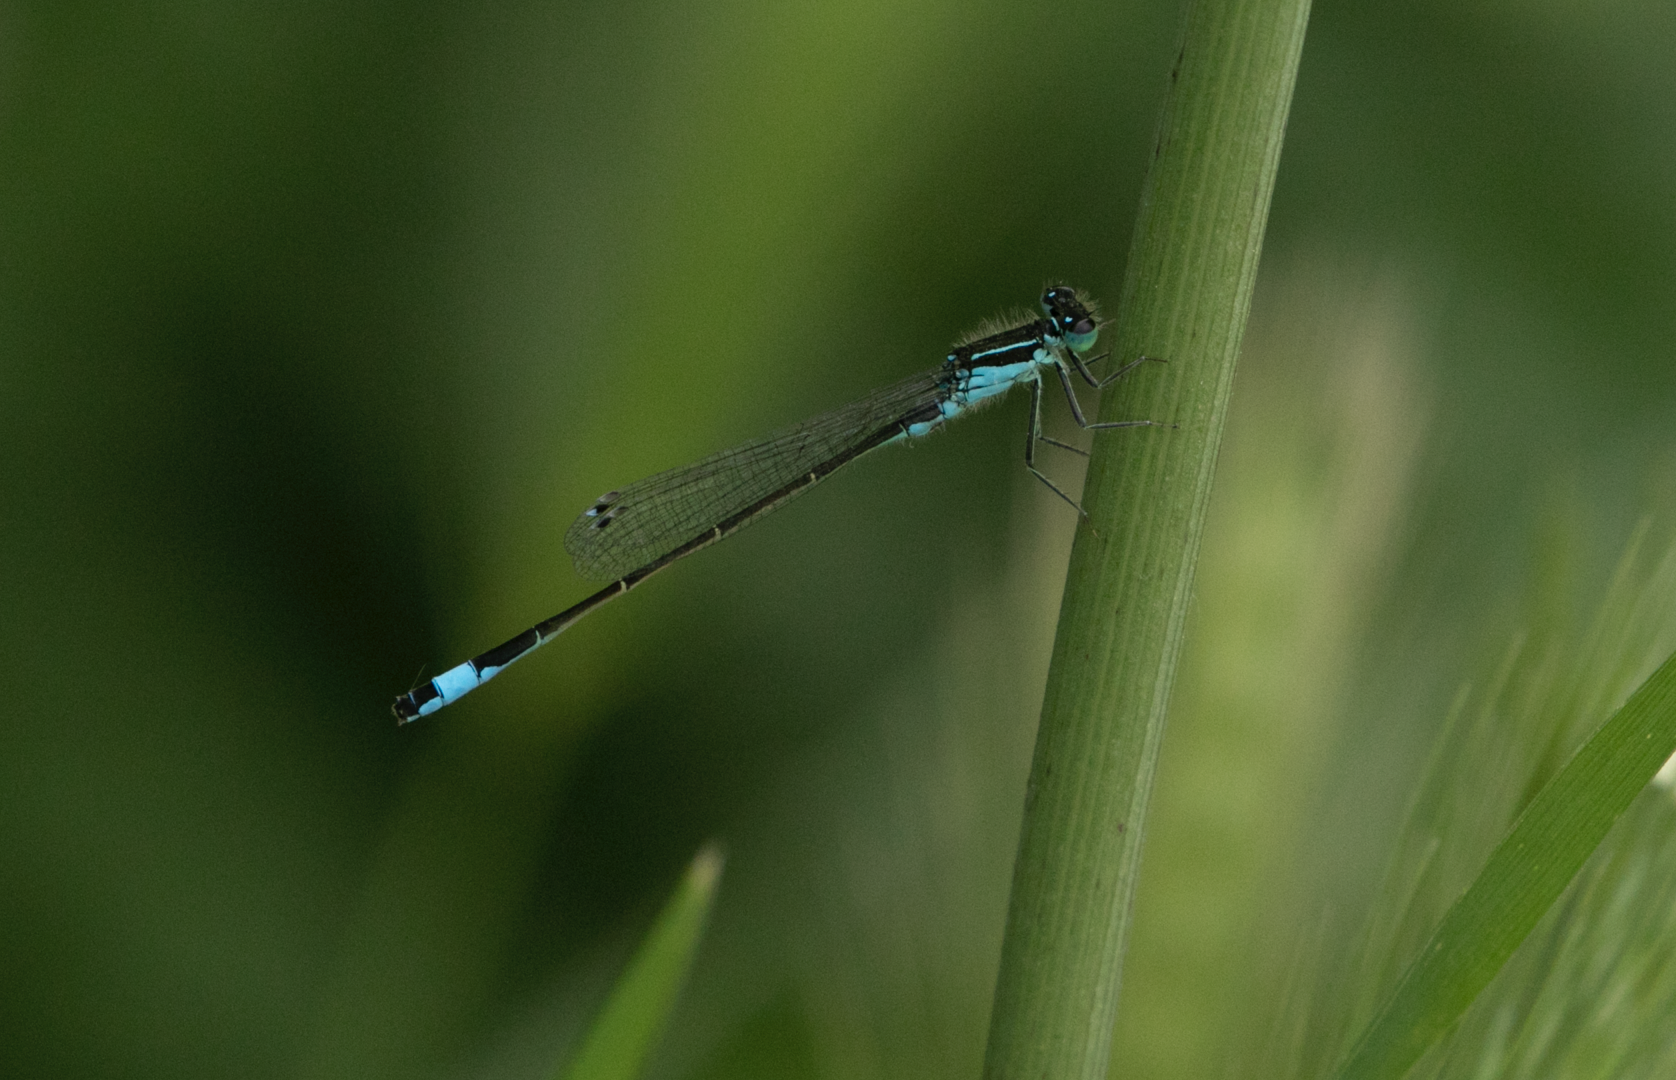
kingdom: Animalia
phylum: Arthropoda
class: Insecta
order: Odonata
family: Coenagrionidae
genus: Ischnura
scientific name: Ischnura elegans
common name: Blue-tailed damselfly
